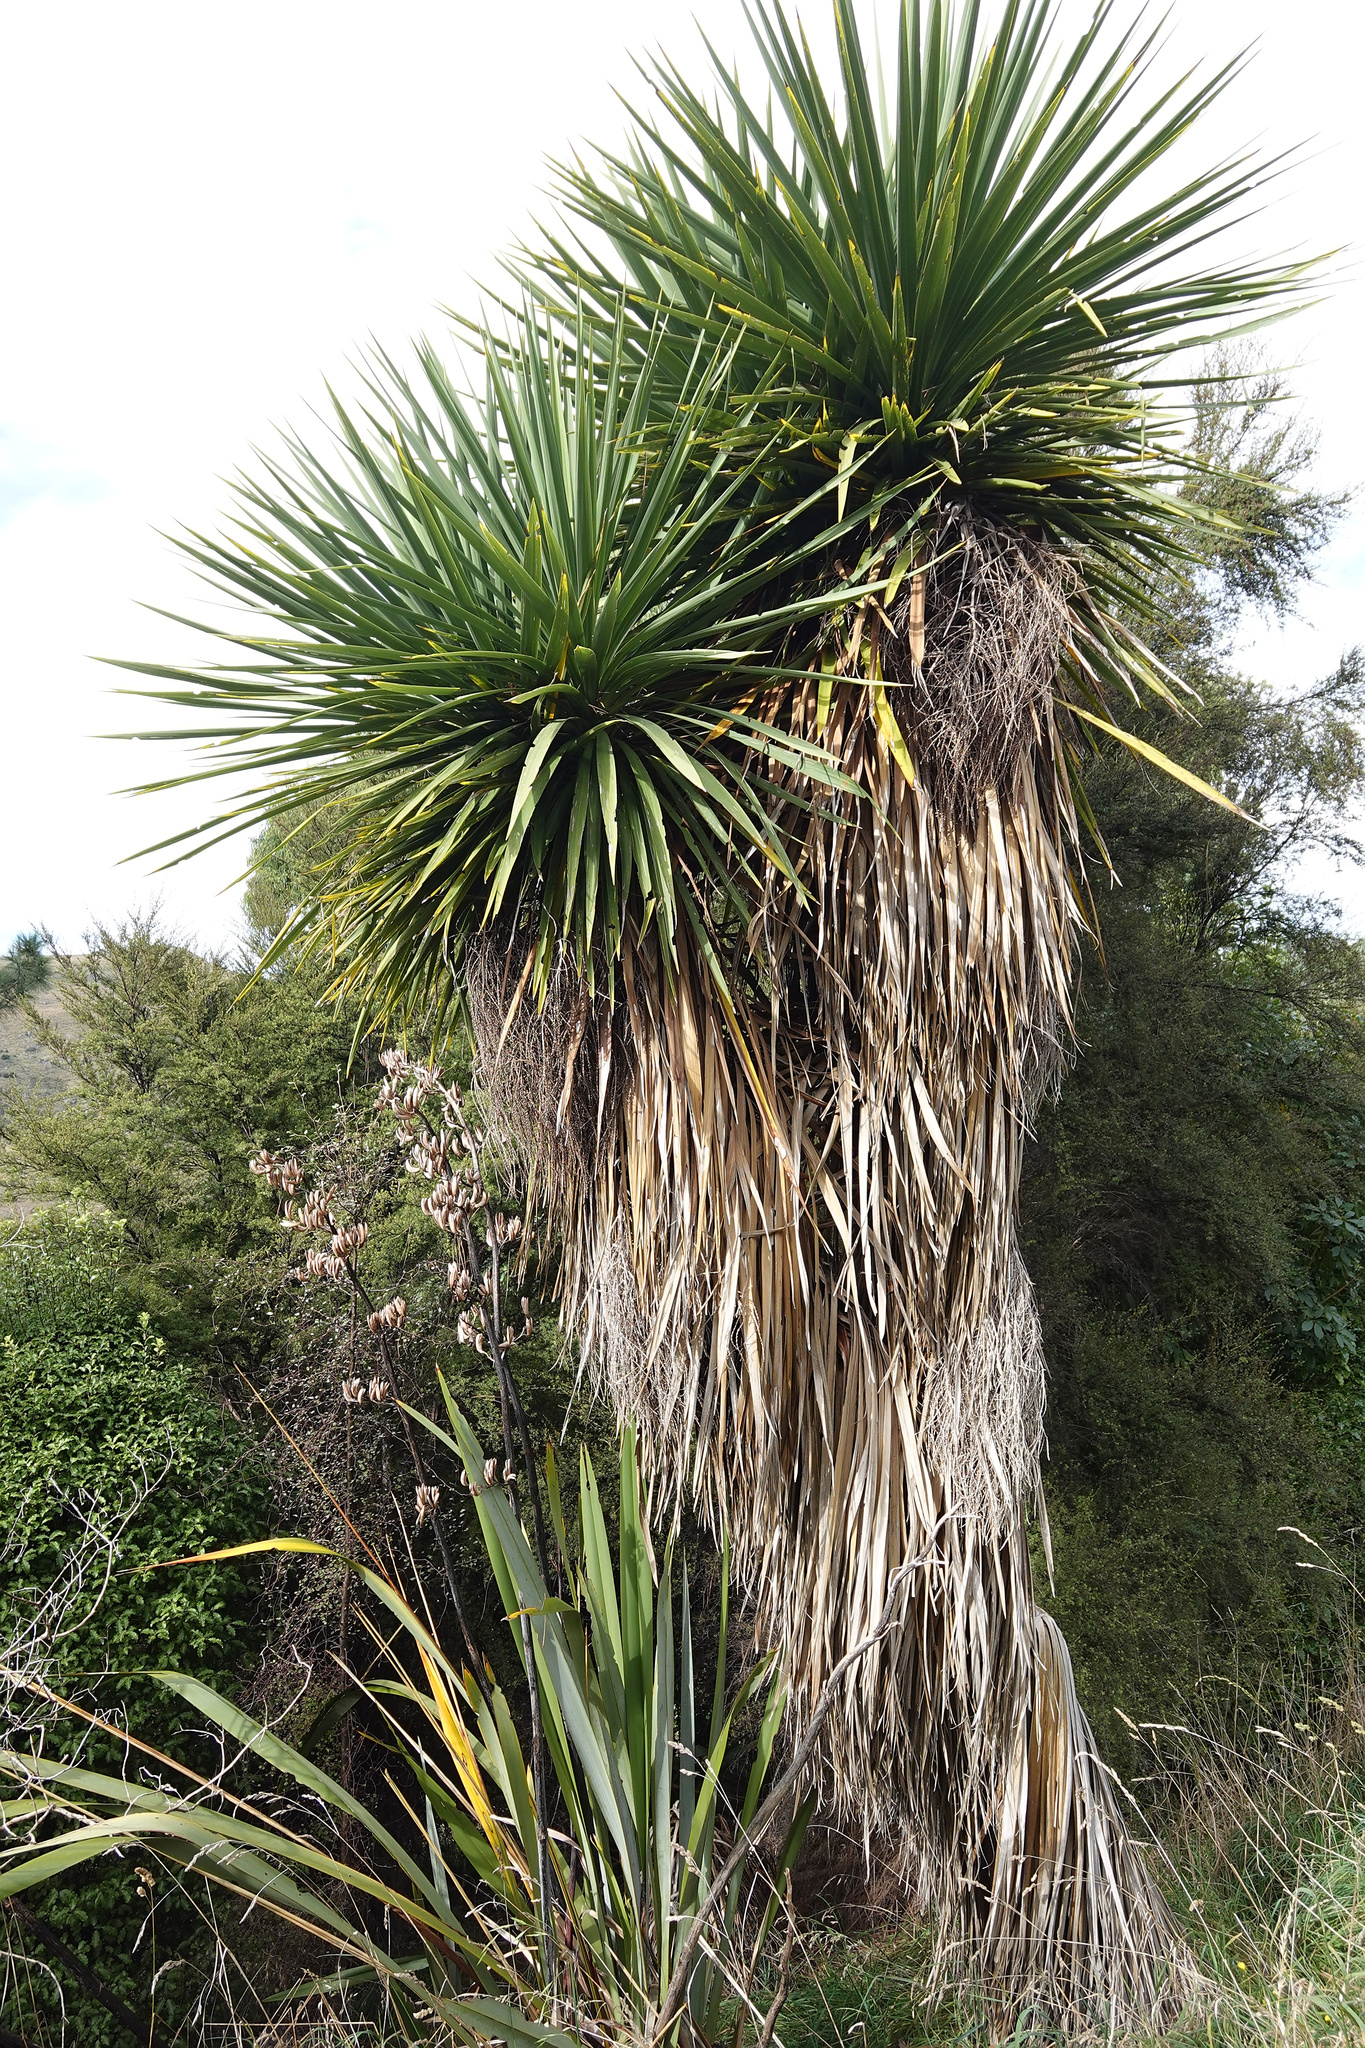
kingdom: Plantae
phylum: Tracheophyta
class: Liliopsida
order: Asparagales
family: Asparagaceae
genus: Cordyline
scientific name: Cordyline australis
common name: Cabbage-palm
